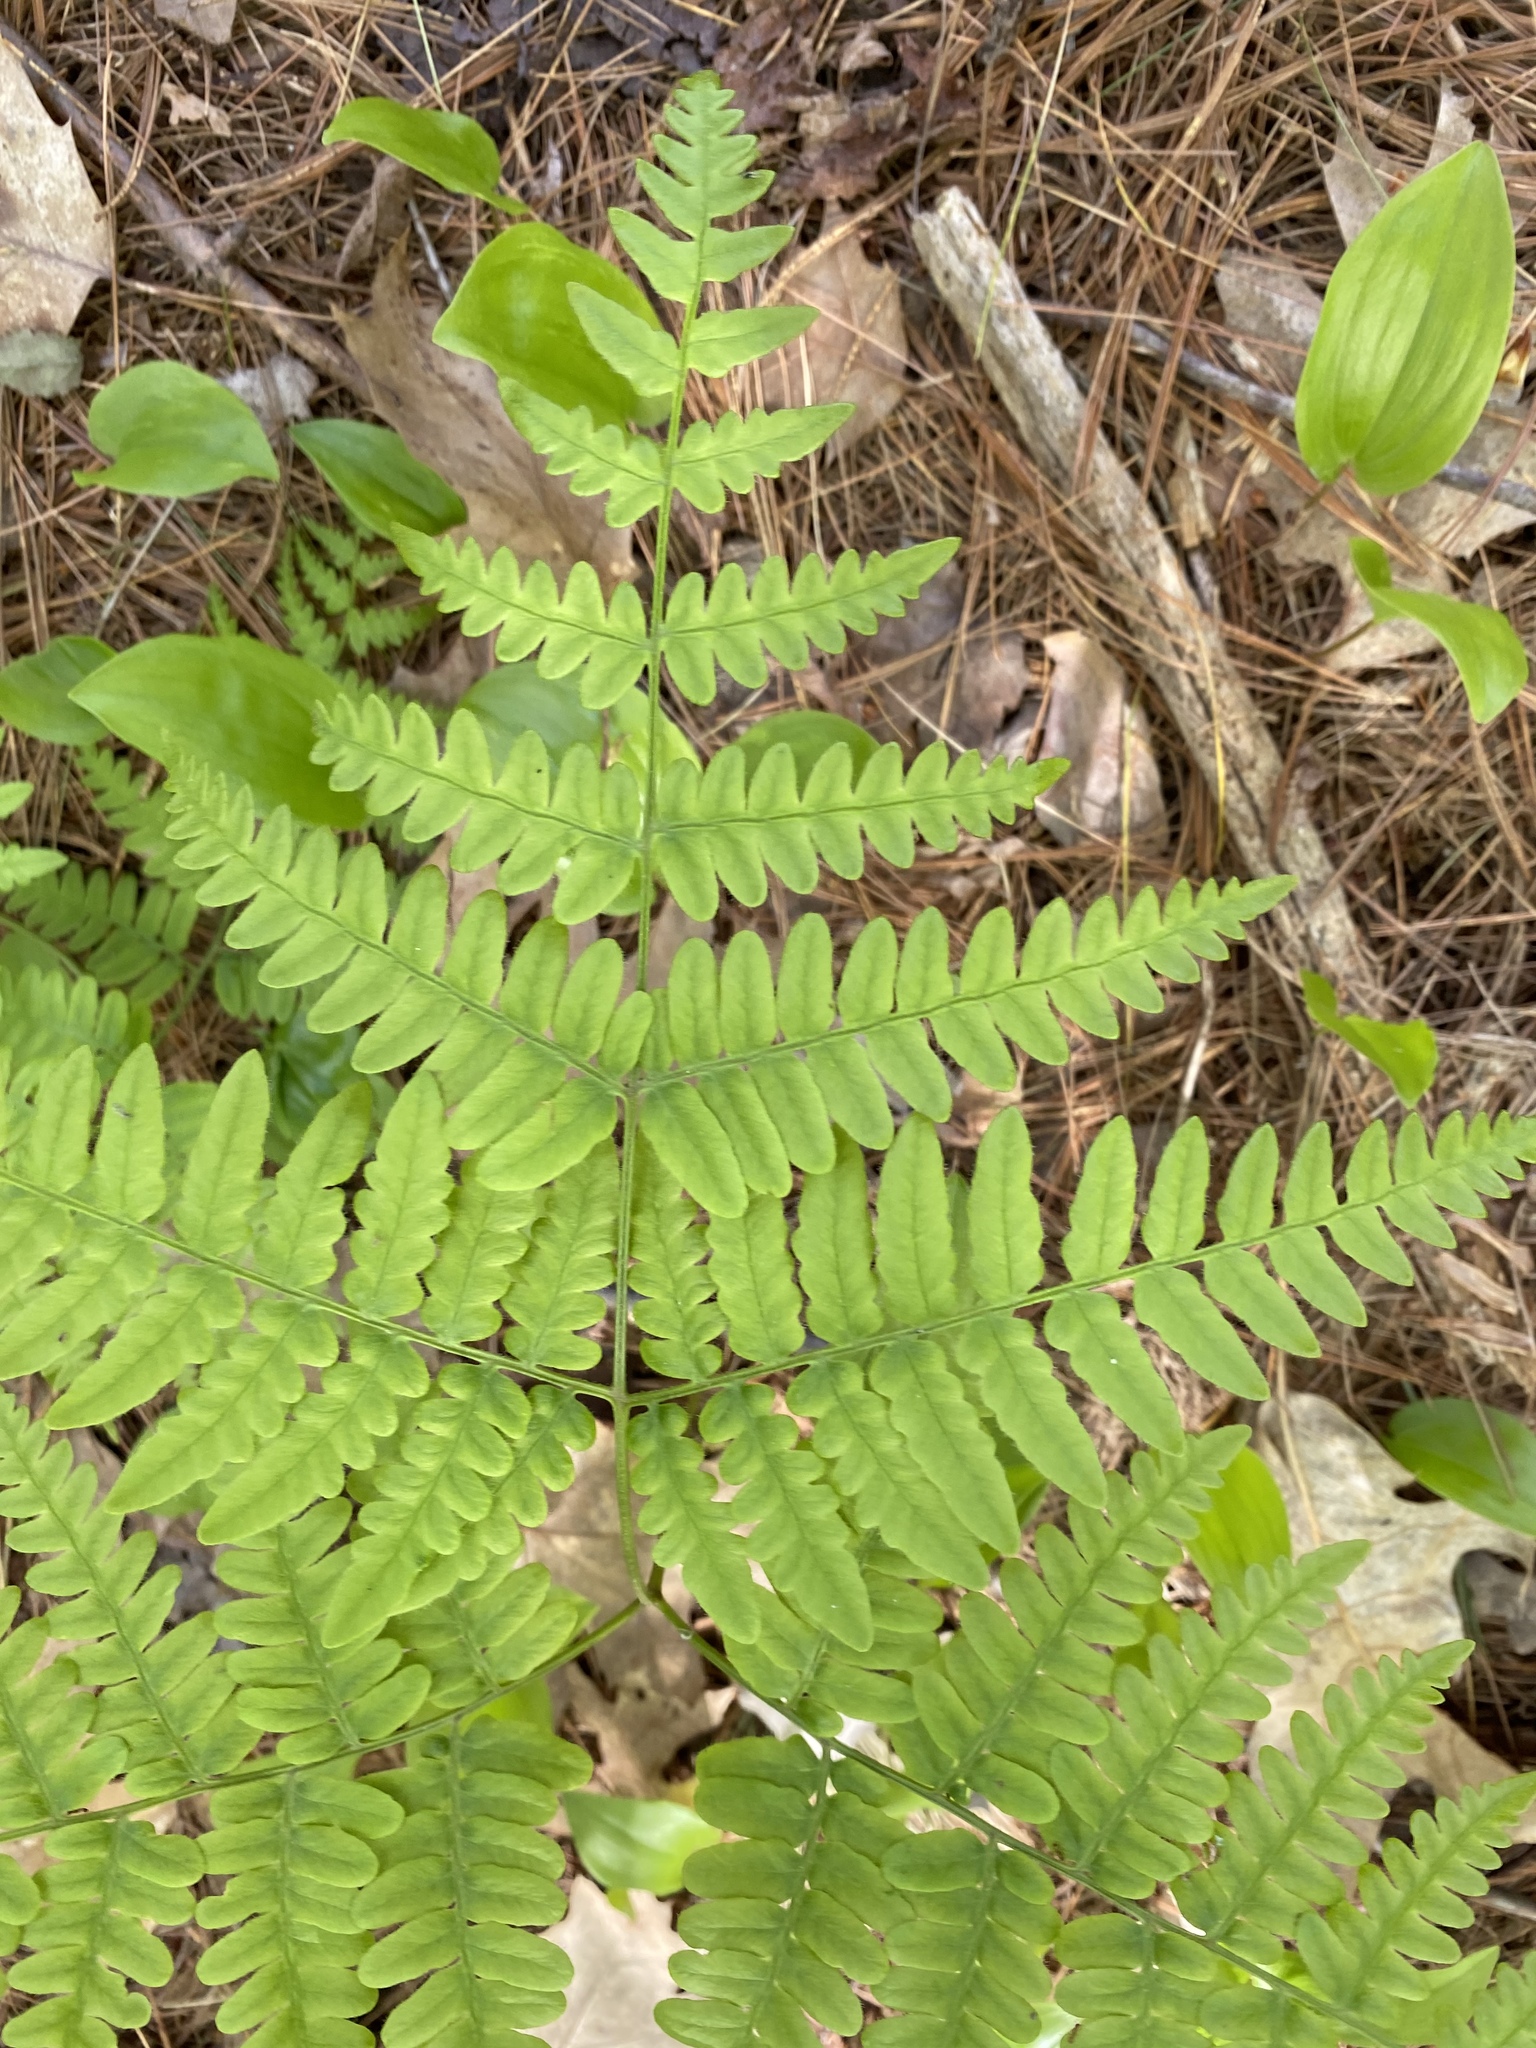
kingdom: Plantae
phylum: Tracheophyta
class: Polypodiopsida
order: Polypodiales
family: Dennstaedtiaceae
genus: Pteridium
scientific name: Pteridium aquilinum
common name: Bracken
